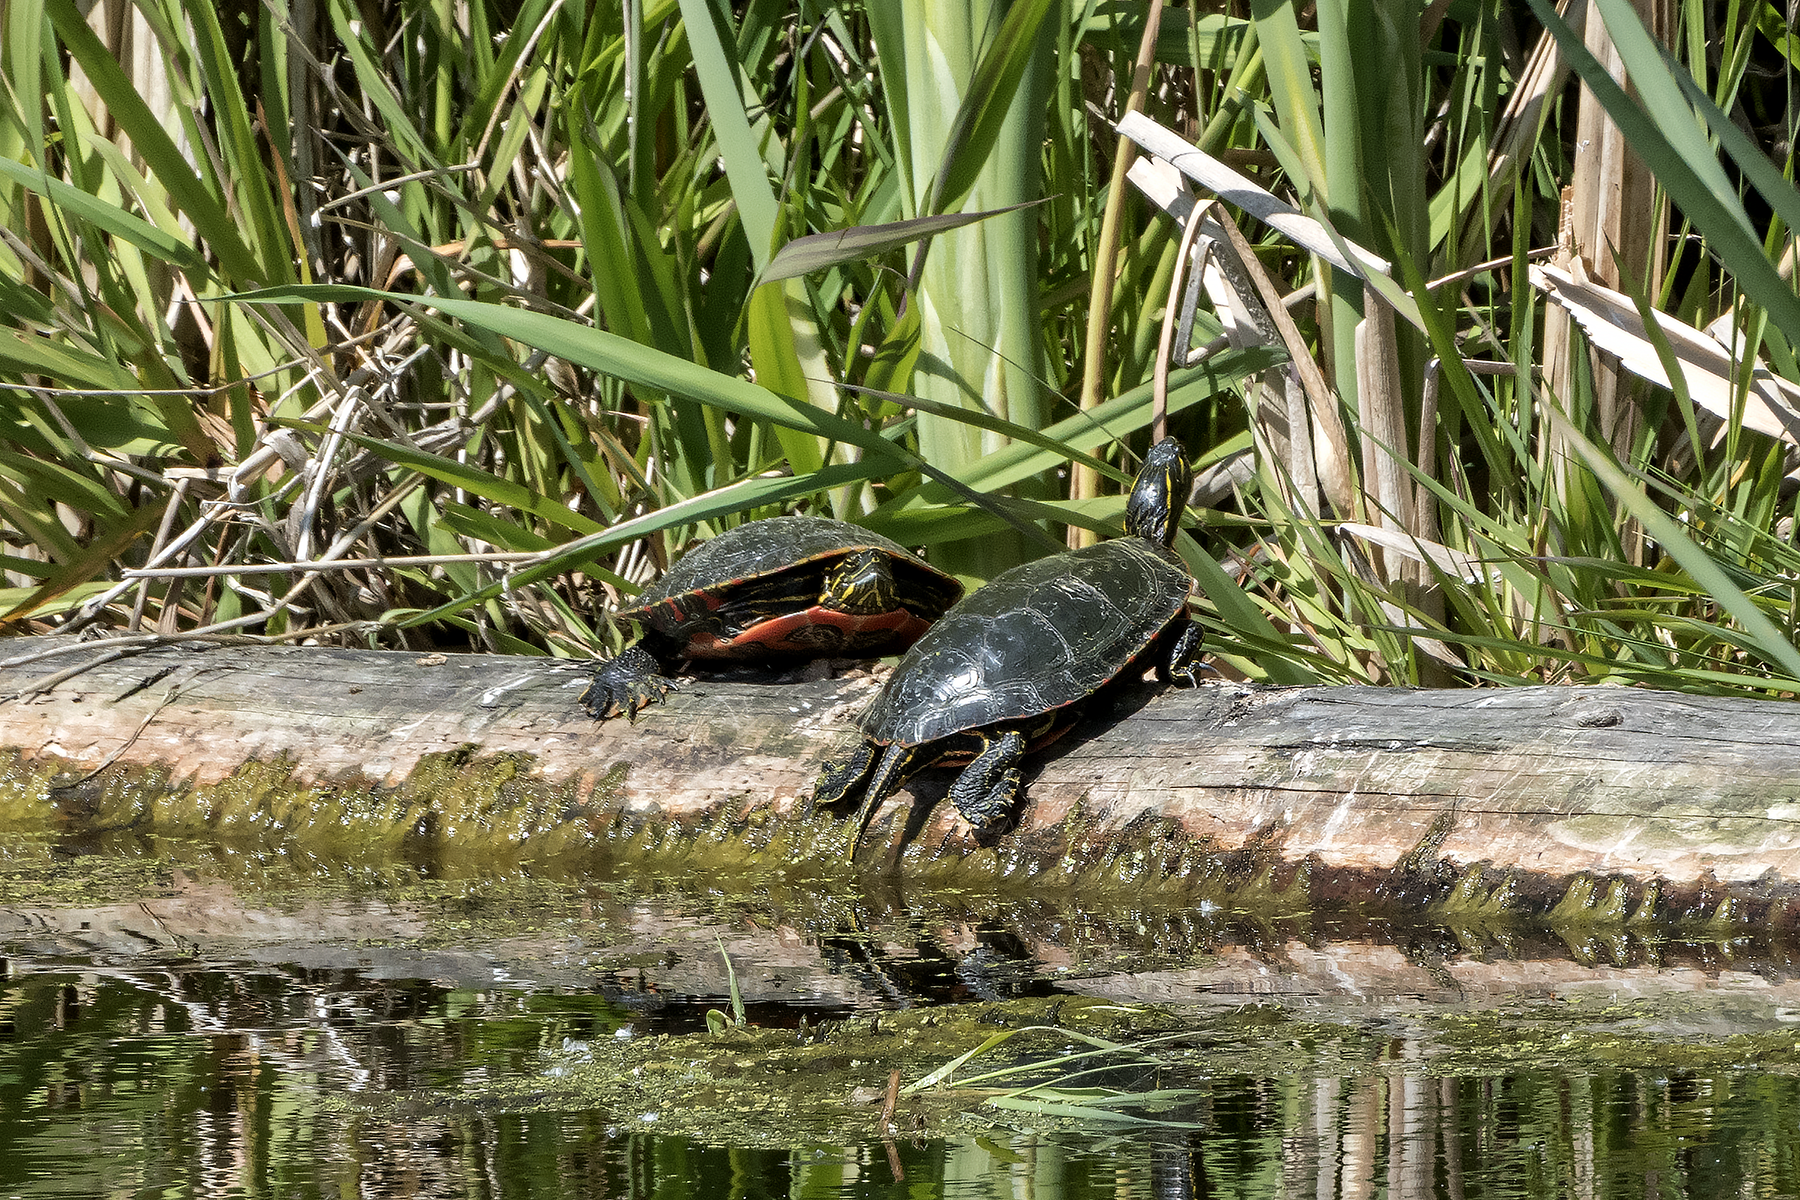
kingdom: Animalia
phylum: Chordata
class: Testudines
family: Emydidae
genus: Chrysemys
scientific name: Chrysemys picta
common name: Painted turtle
